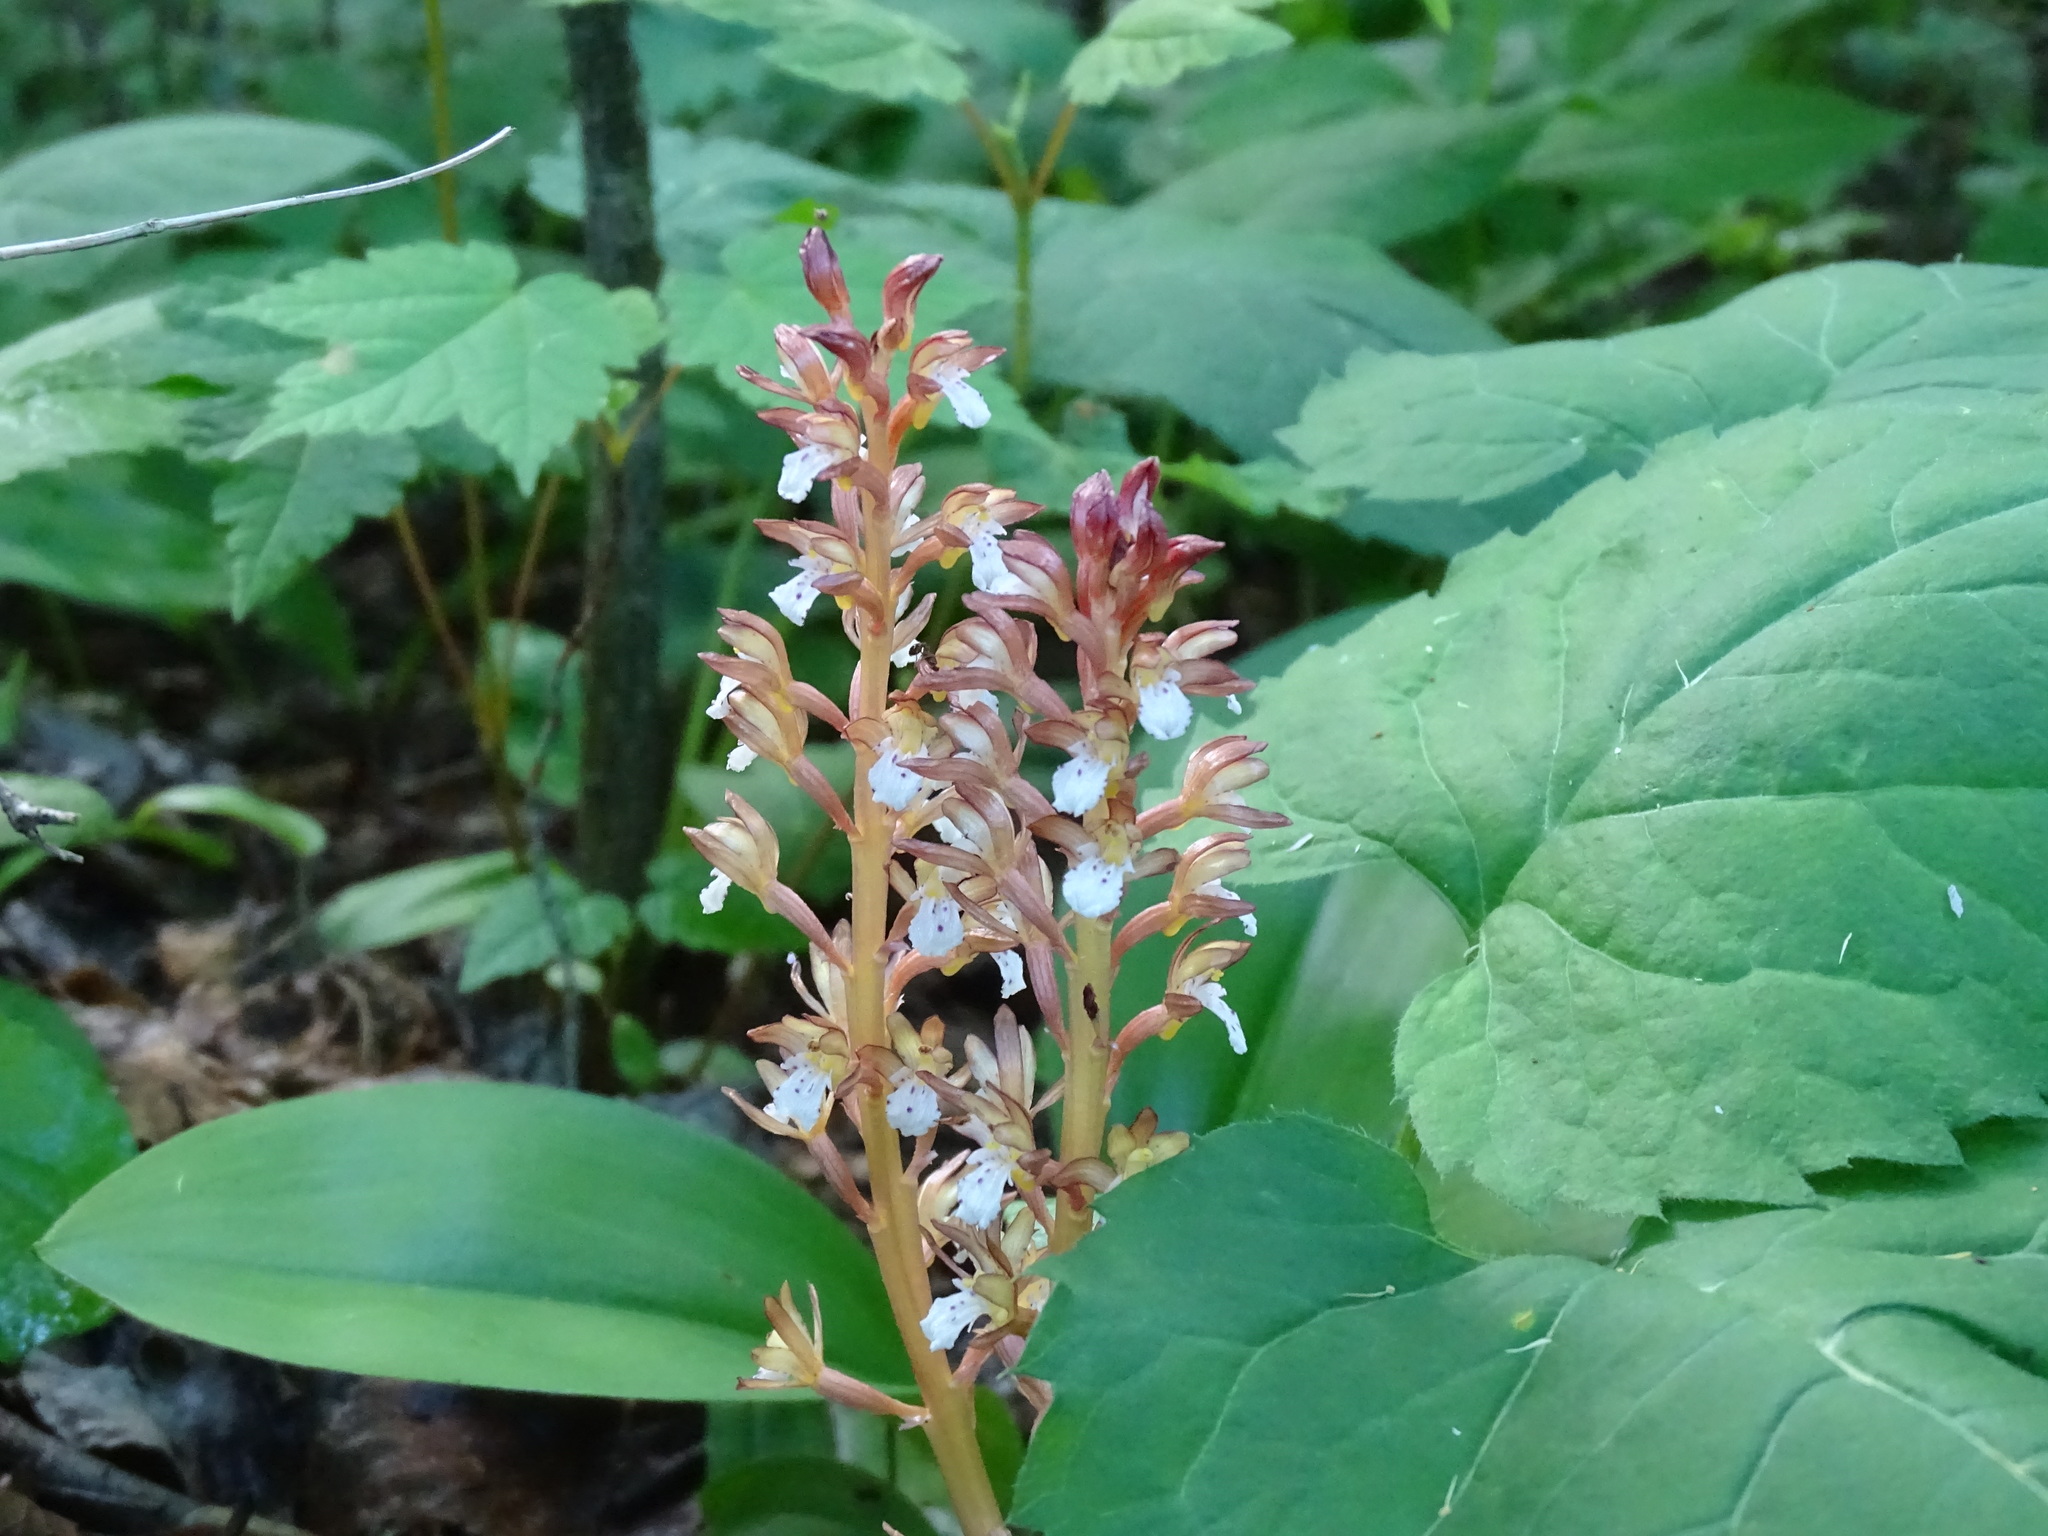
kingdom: Plantae
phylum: Tracheophyta
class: Liliopsida
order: Asparagales
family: Orchidaceae
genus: Corallorhiza
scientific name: Corallorhiza maculata
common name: Spotted coralroot
